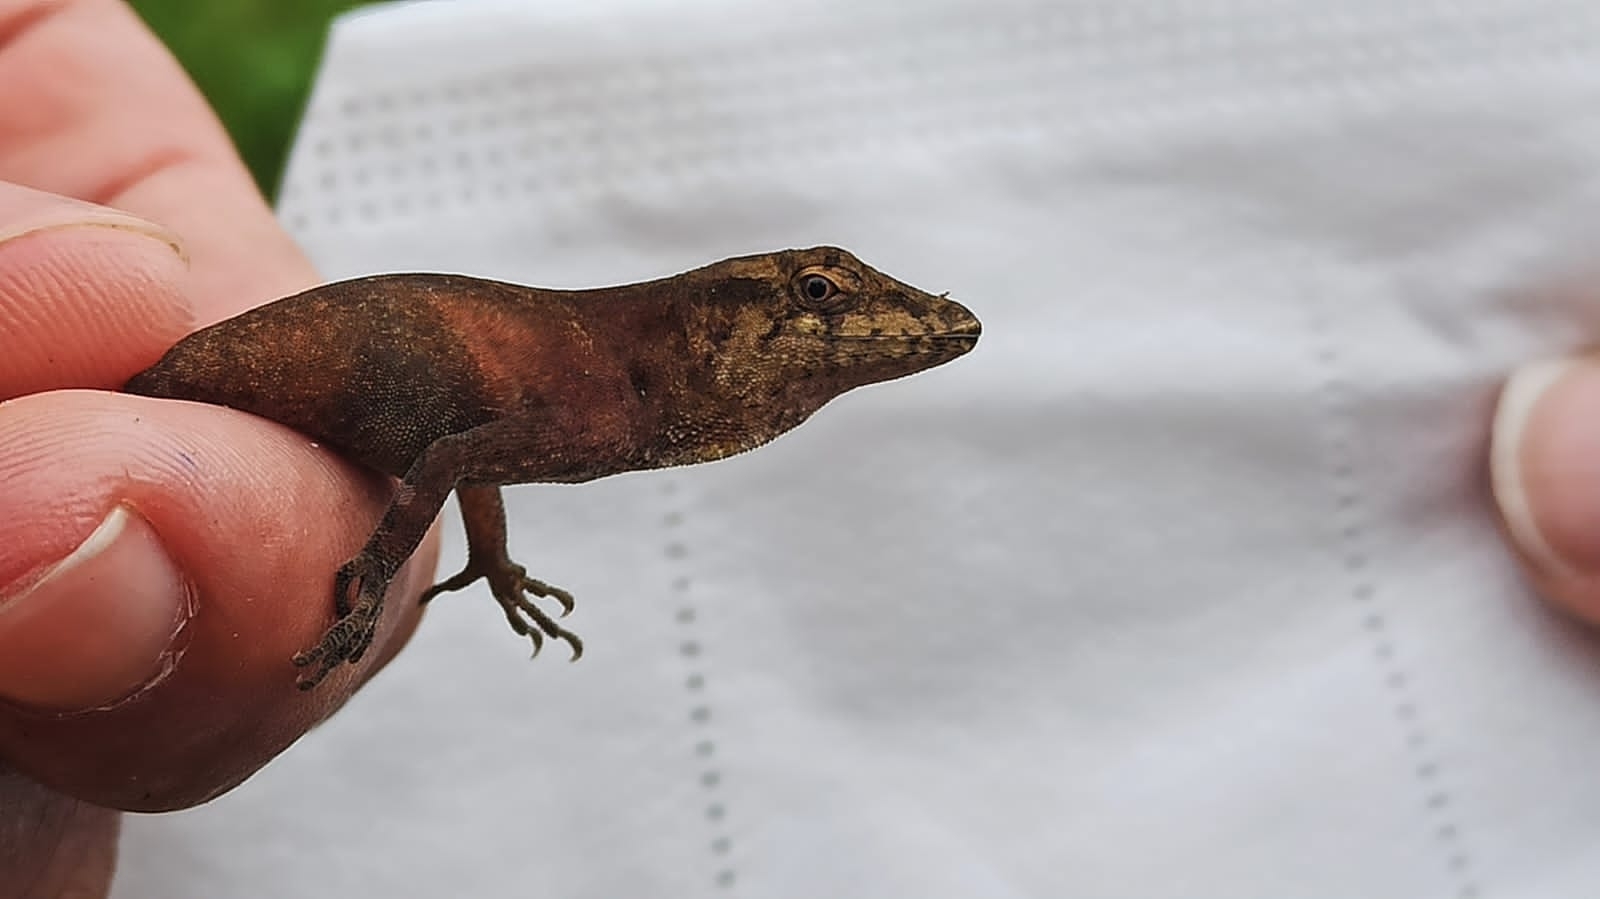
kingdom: Animalia
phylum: Chordata
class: Squamata
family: Dactyloidae
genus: Anolis
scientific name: Anolis pachypus
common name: Thick anole
